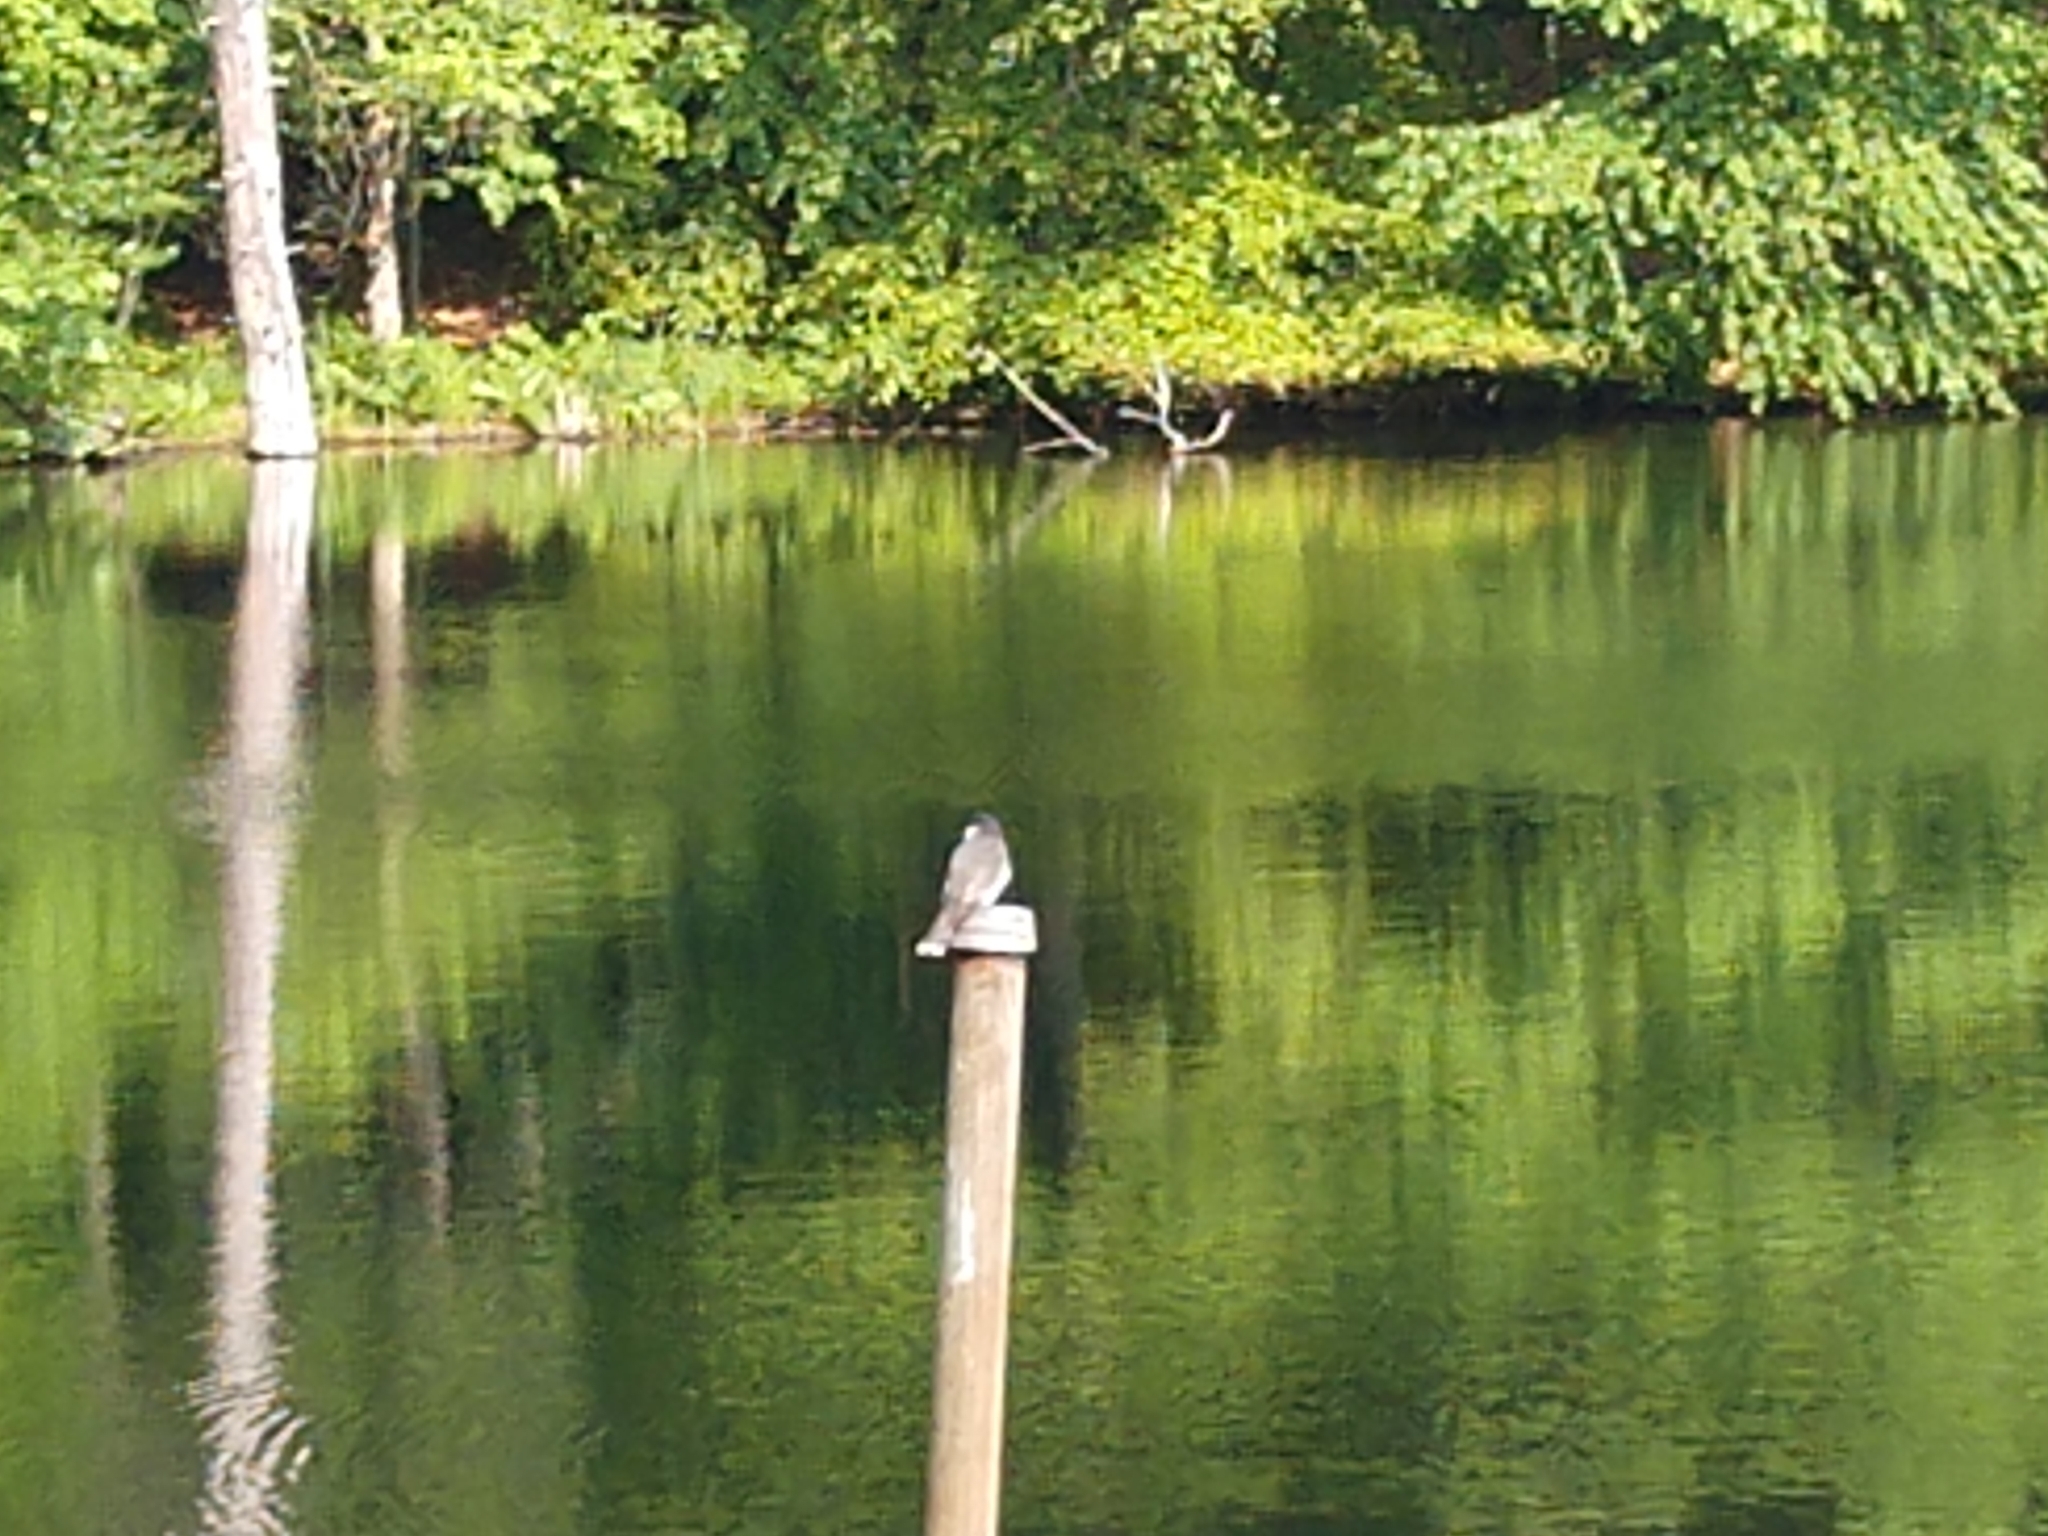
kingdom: Animalia
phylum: Chordata
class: Aves
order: Passeriformes
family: Tyrannidae
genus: Tyrannus
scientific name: Tyrannus tyrannus
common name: Eastern kingbird
